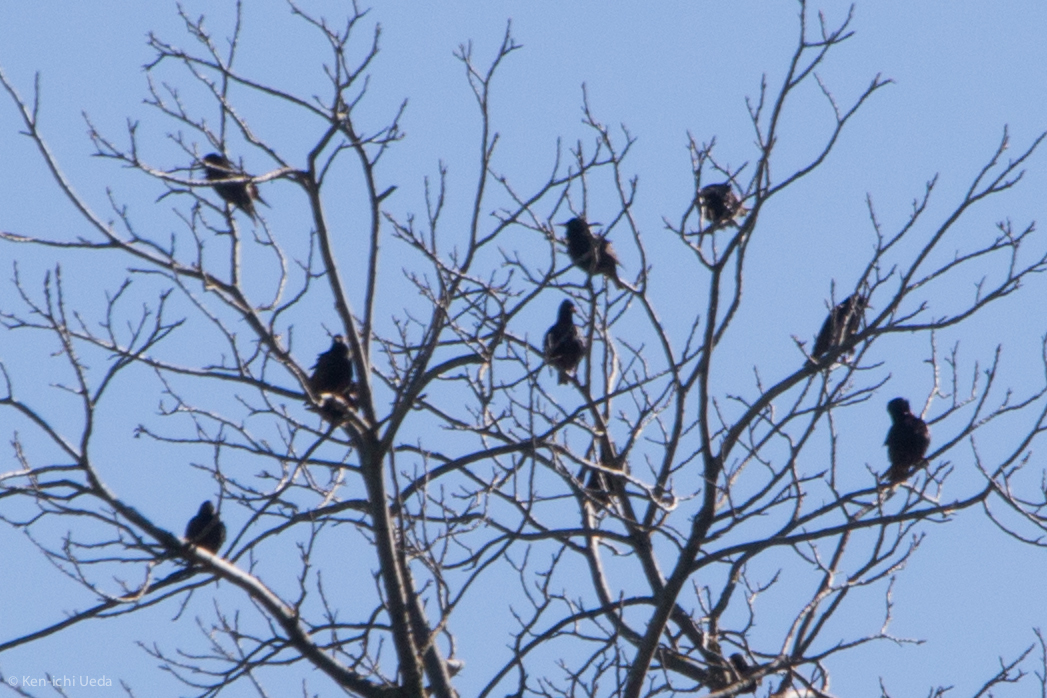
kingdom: Animalia
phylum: Chordata
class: Aves
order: Passeriformes
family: Sturnidae
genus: Sturnus
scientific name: Sturnus vulgaris
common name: Common starling
